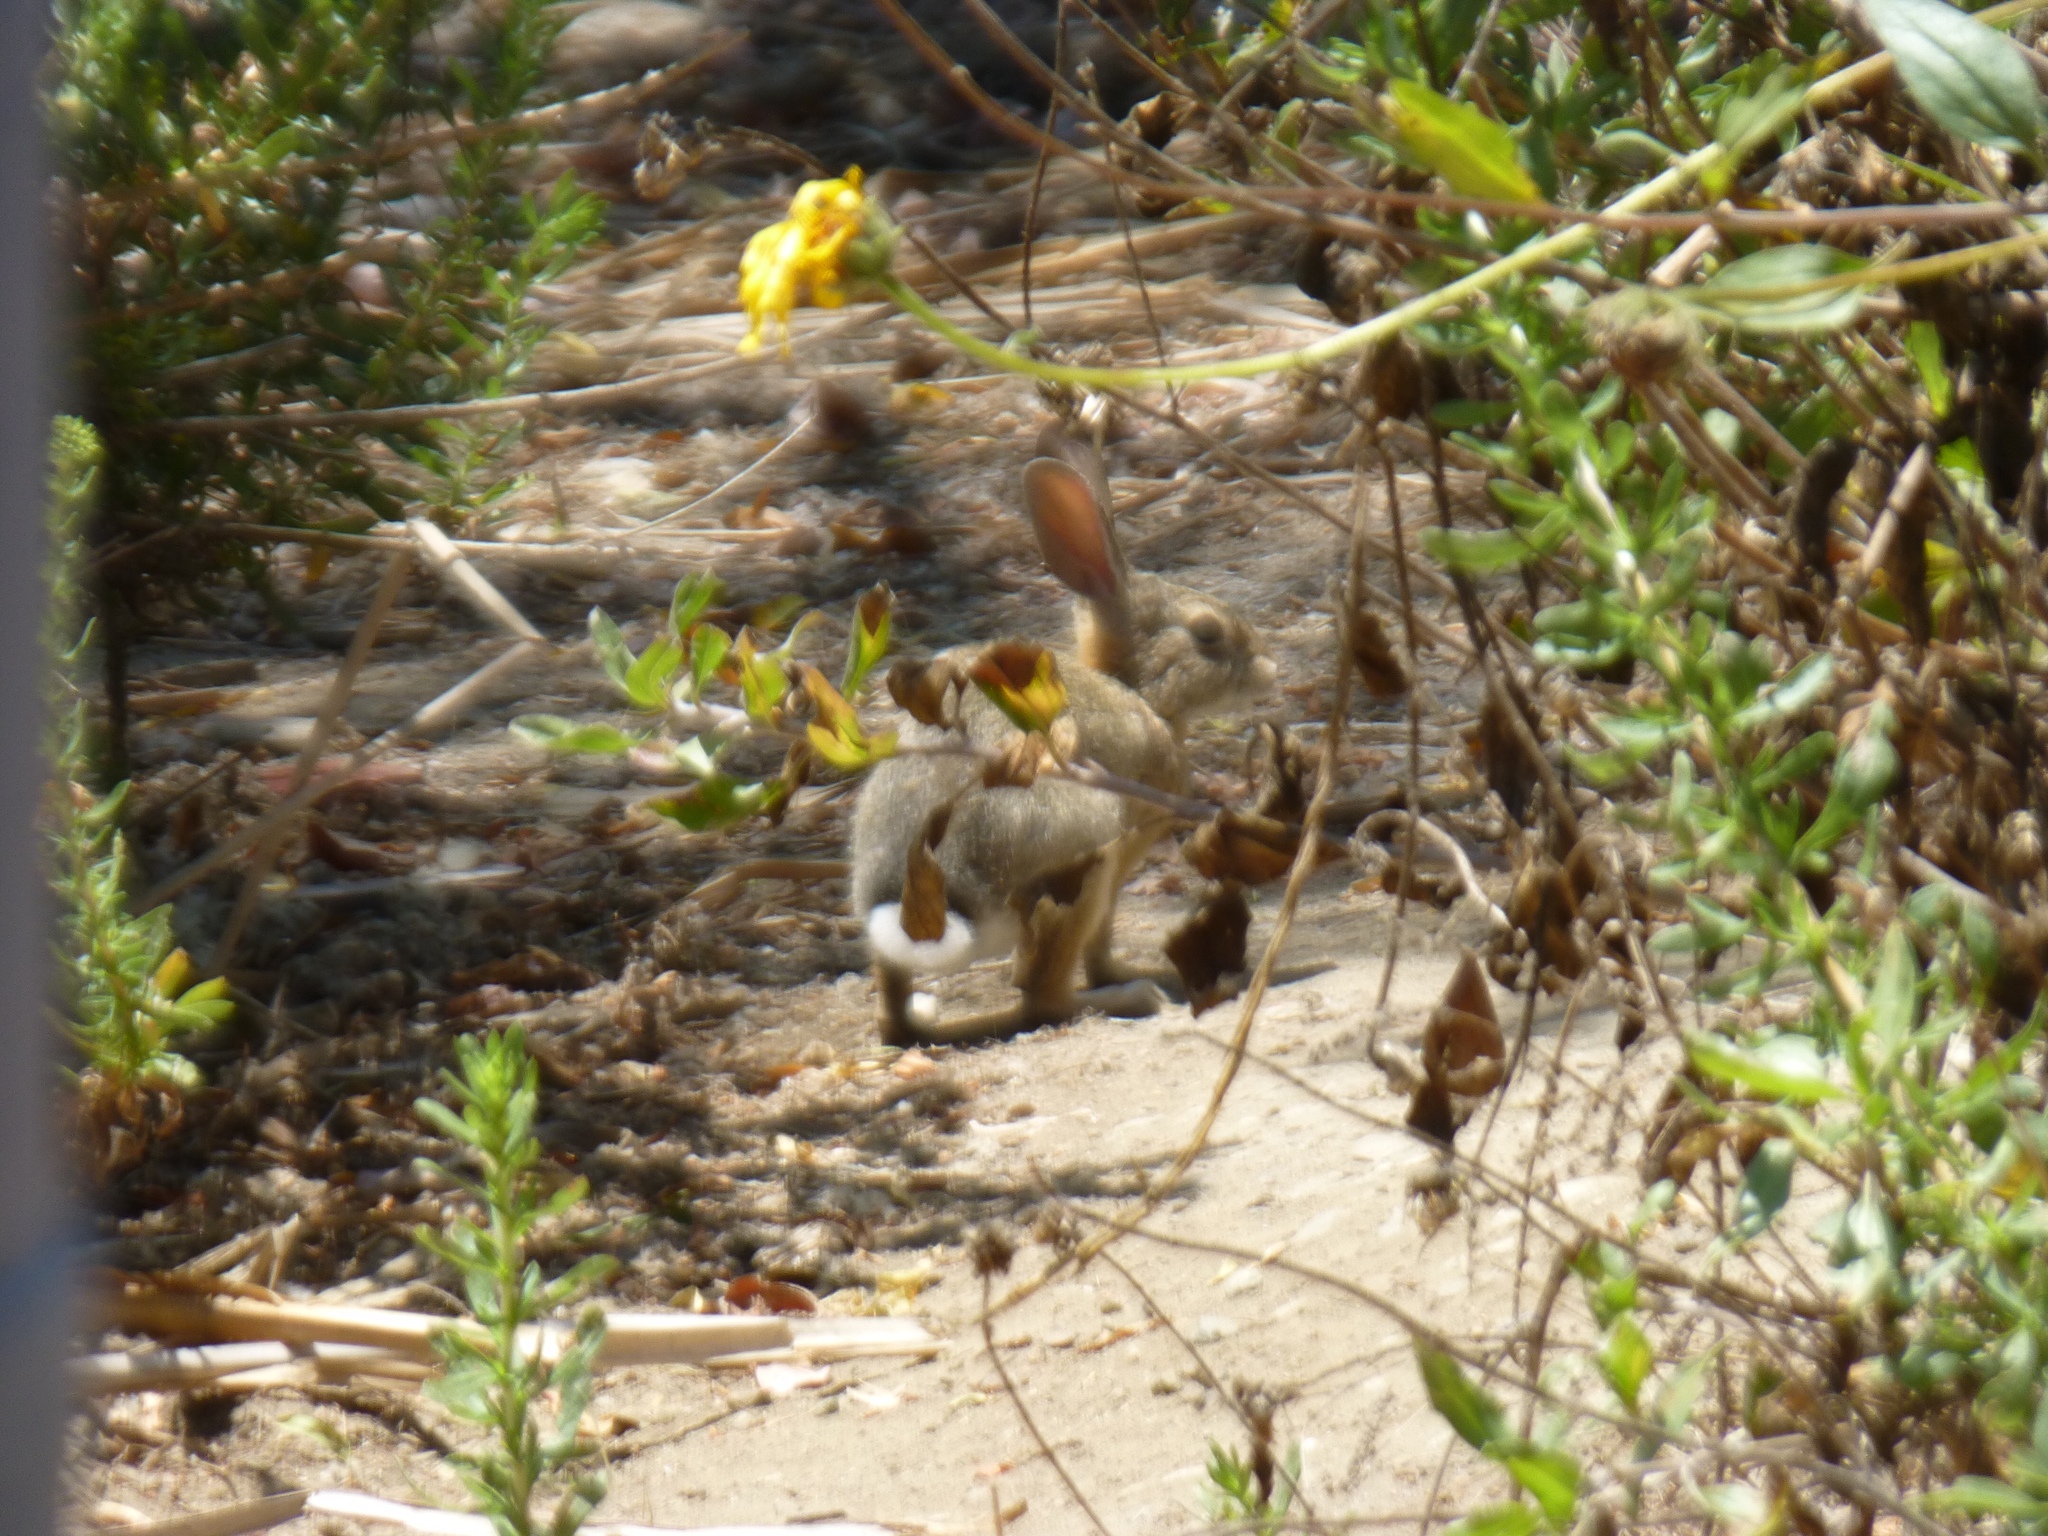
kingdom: Animalia
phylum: Chordata
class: Mammalia
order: Lagomorpha
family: Leporidae
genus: Sylvilagus
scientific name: Sylvilagus audubonii
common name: Desert cottontail
